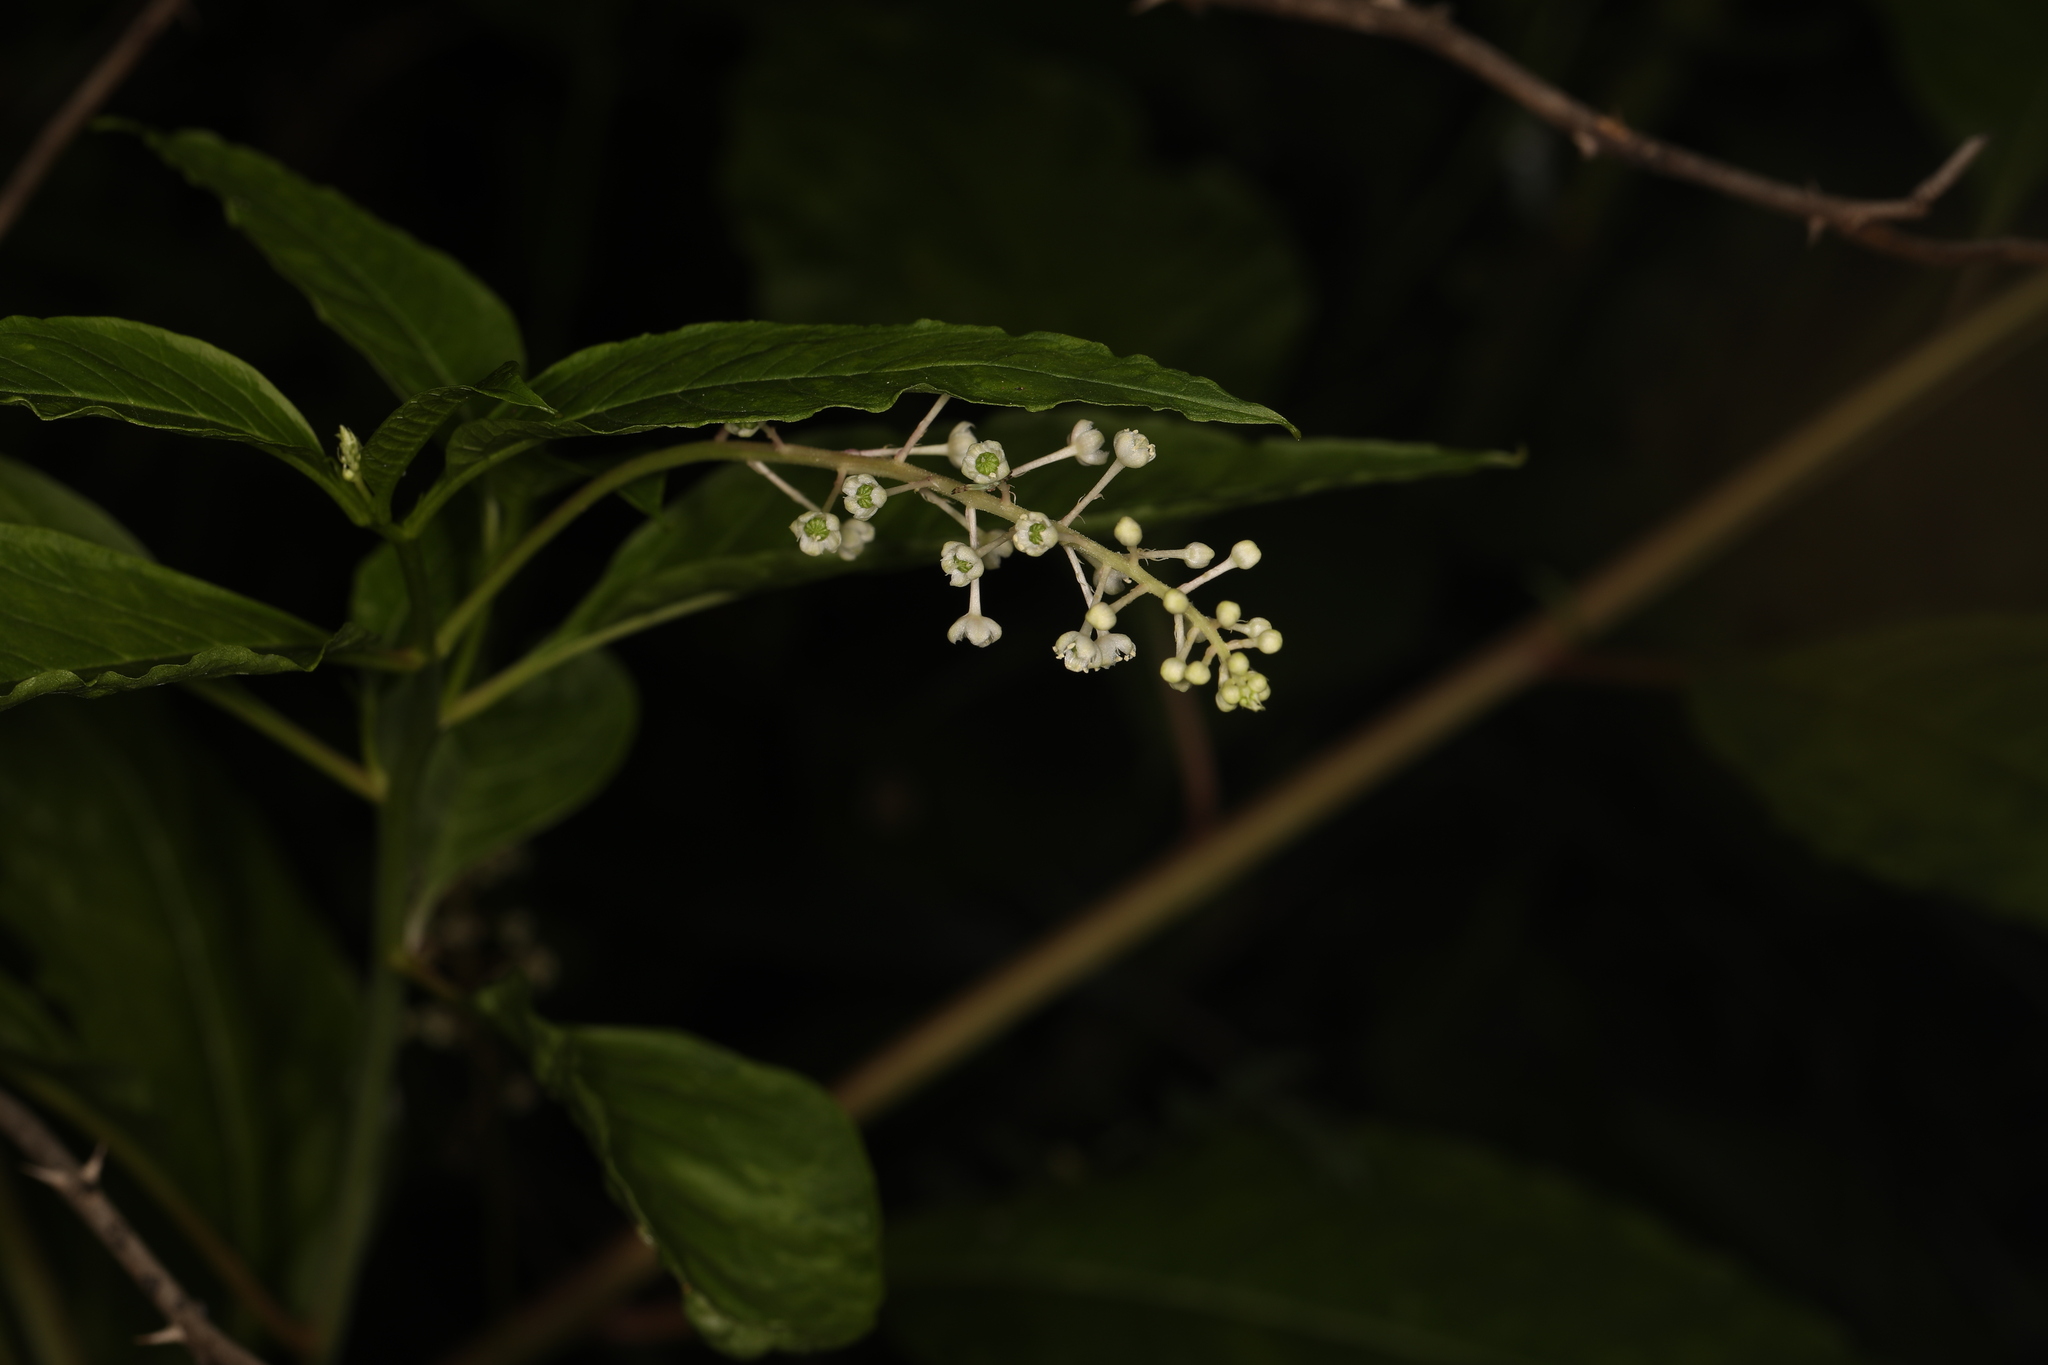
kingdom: Plantae
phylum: Tracheophyta
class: Magnoliopsida
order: Caryophyllales
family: Phytolaccaceae
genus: Phytolacca
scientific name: Phytolacca americana
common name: American pokeweed
